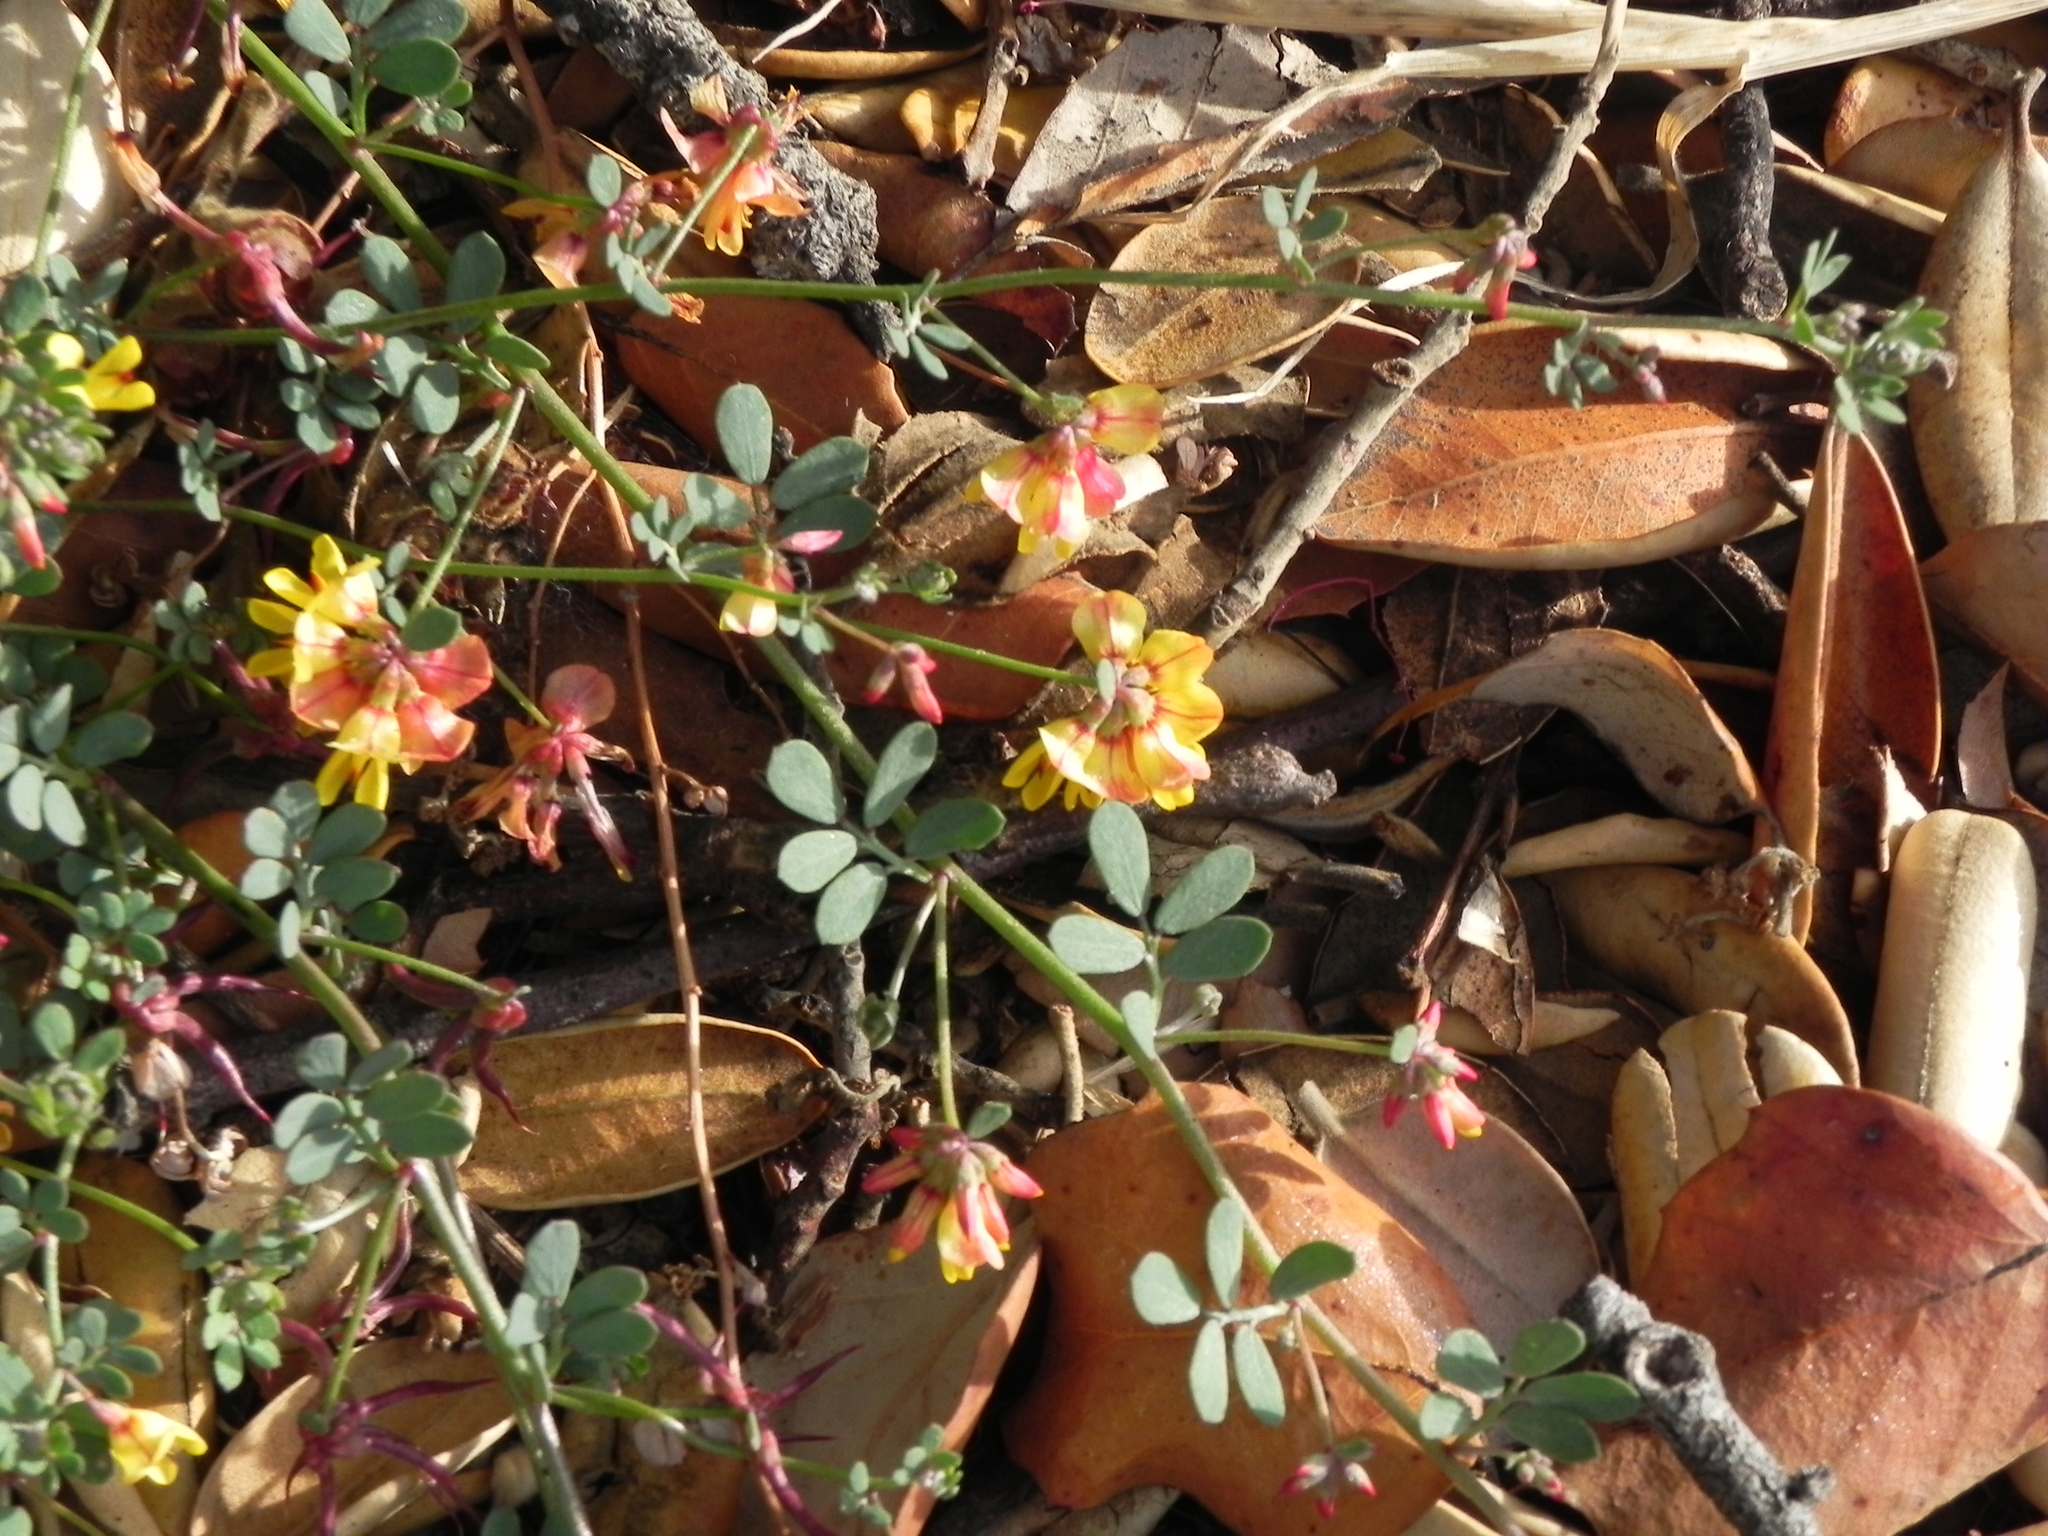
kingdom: Plantae
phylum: Tracheophyta
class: Magnoliopsida
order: Fabales
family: Fabaceae
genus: Acmispon
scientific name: Acmispon prostratus
